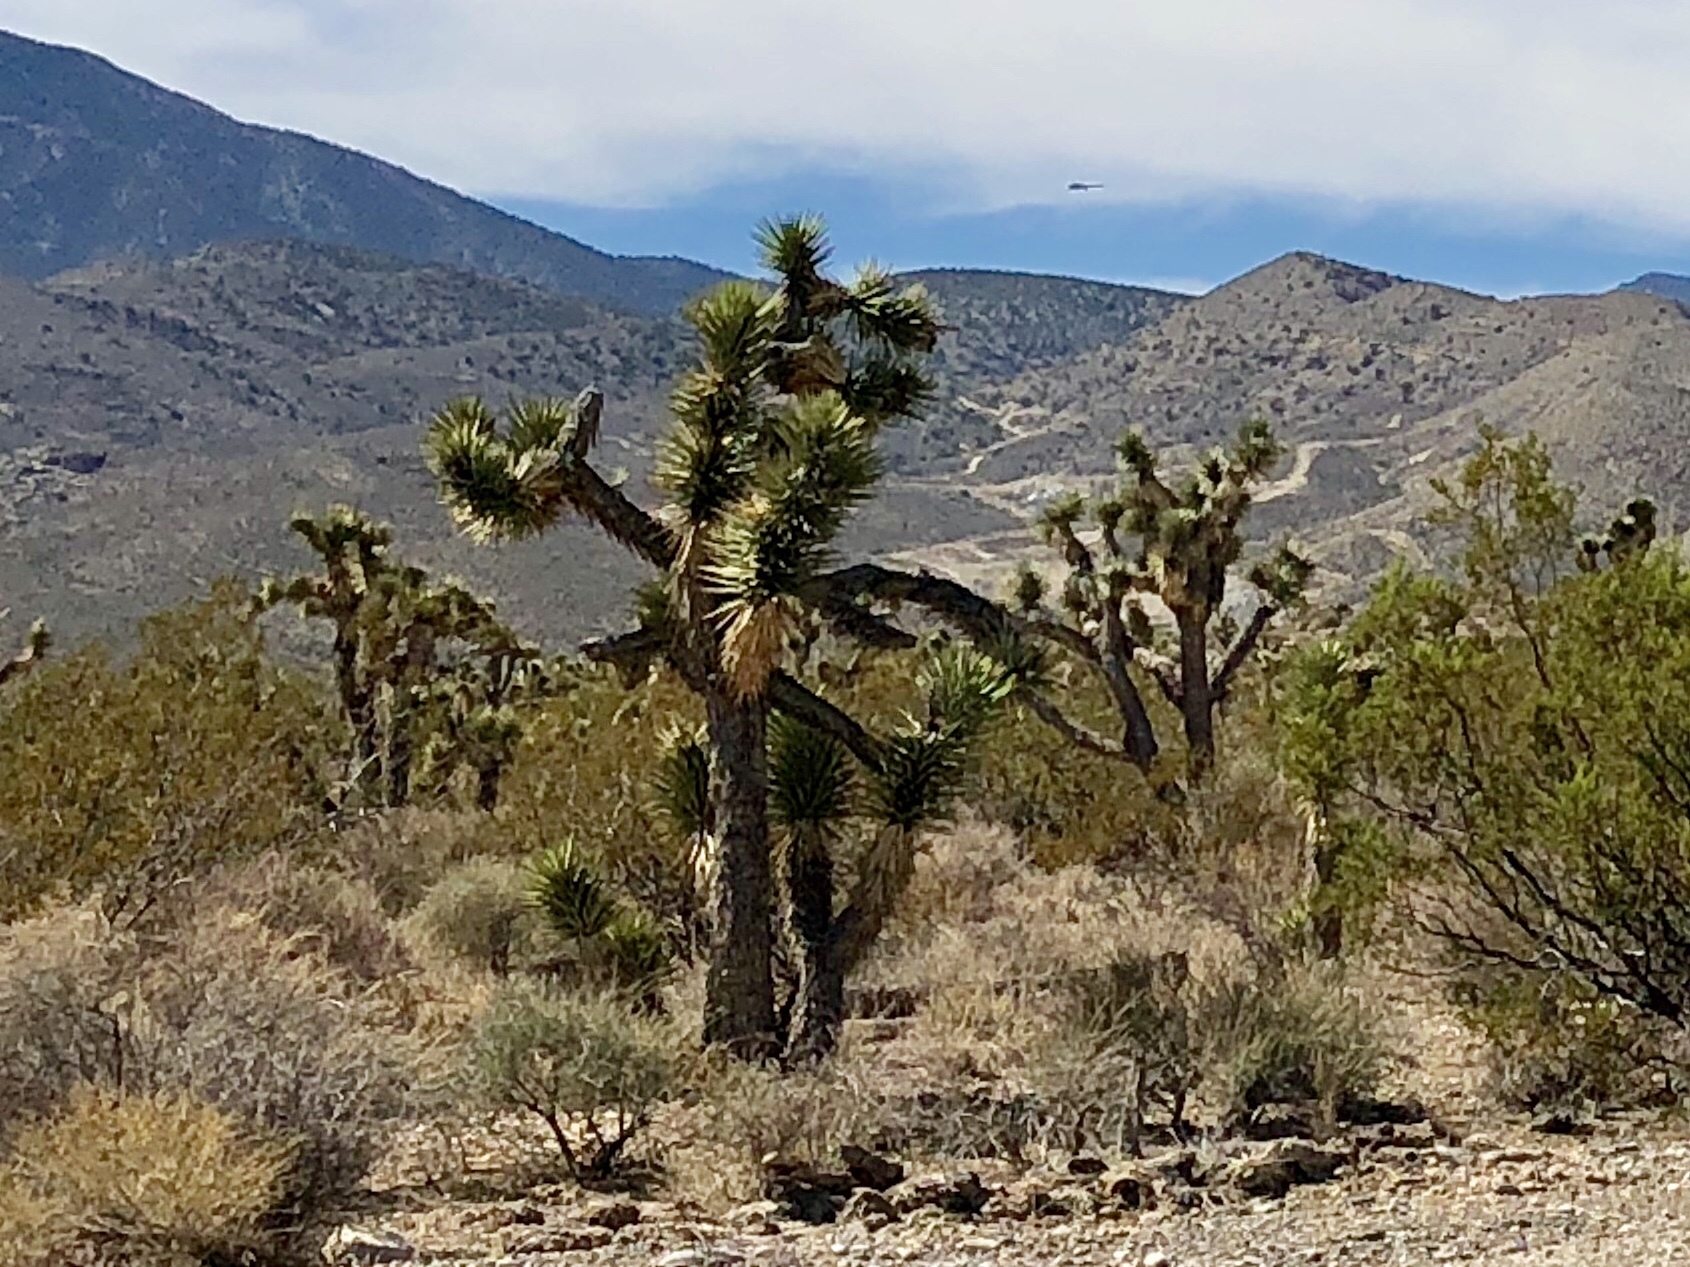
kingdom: Plantae
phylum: Tracheophyta
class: Liliopsida
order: Asparagales
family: Asparagaceae
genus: Yucca
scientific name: Yucca brevifolia
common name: Joshua tree
